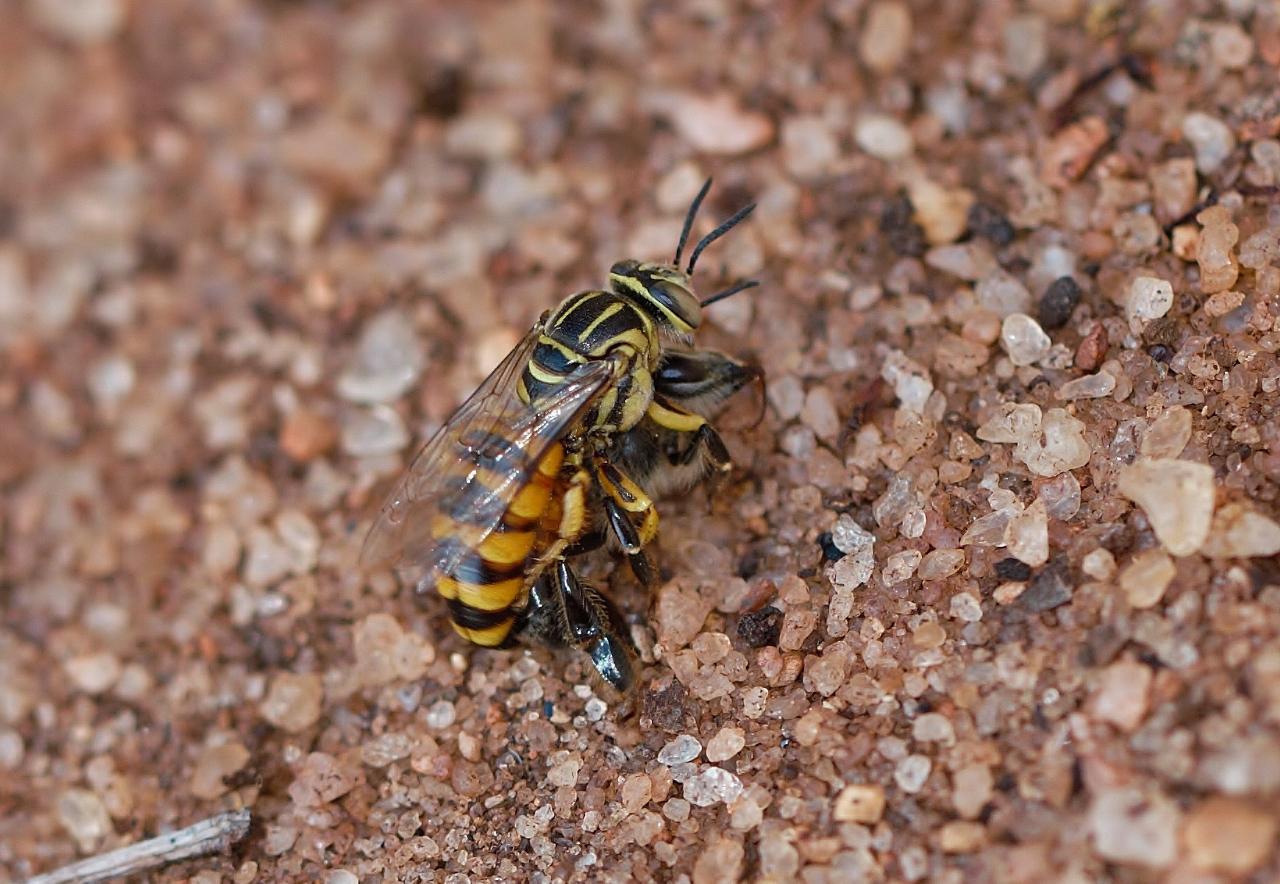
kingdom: Animalia
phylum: Arthropoda
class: Insecta
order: Hymenoptera
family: Apidae
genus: Apis
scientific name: Apis mellifera
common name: Honey bee
